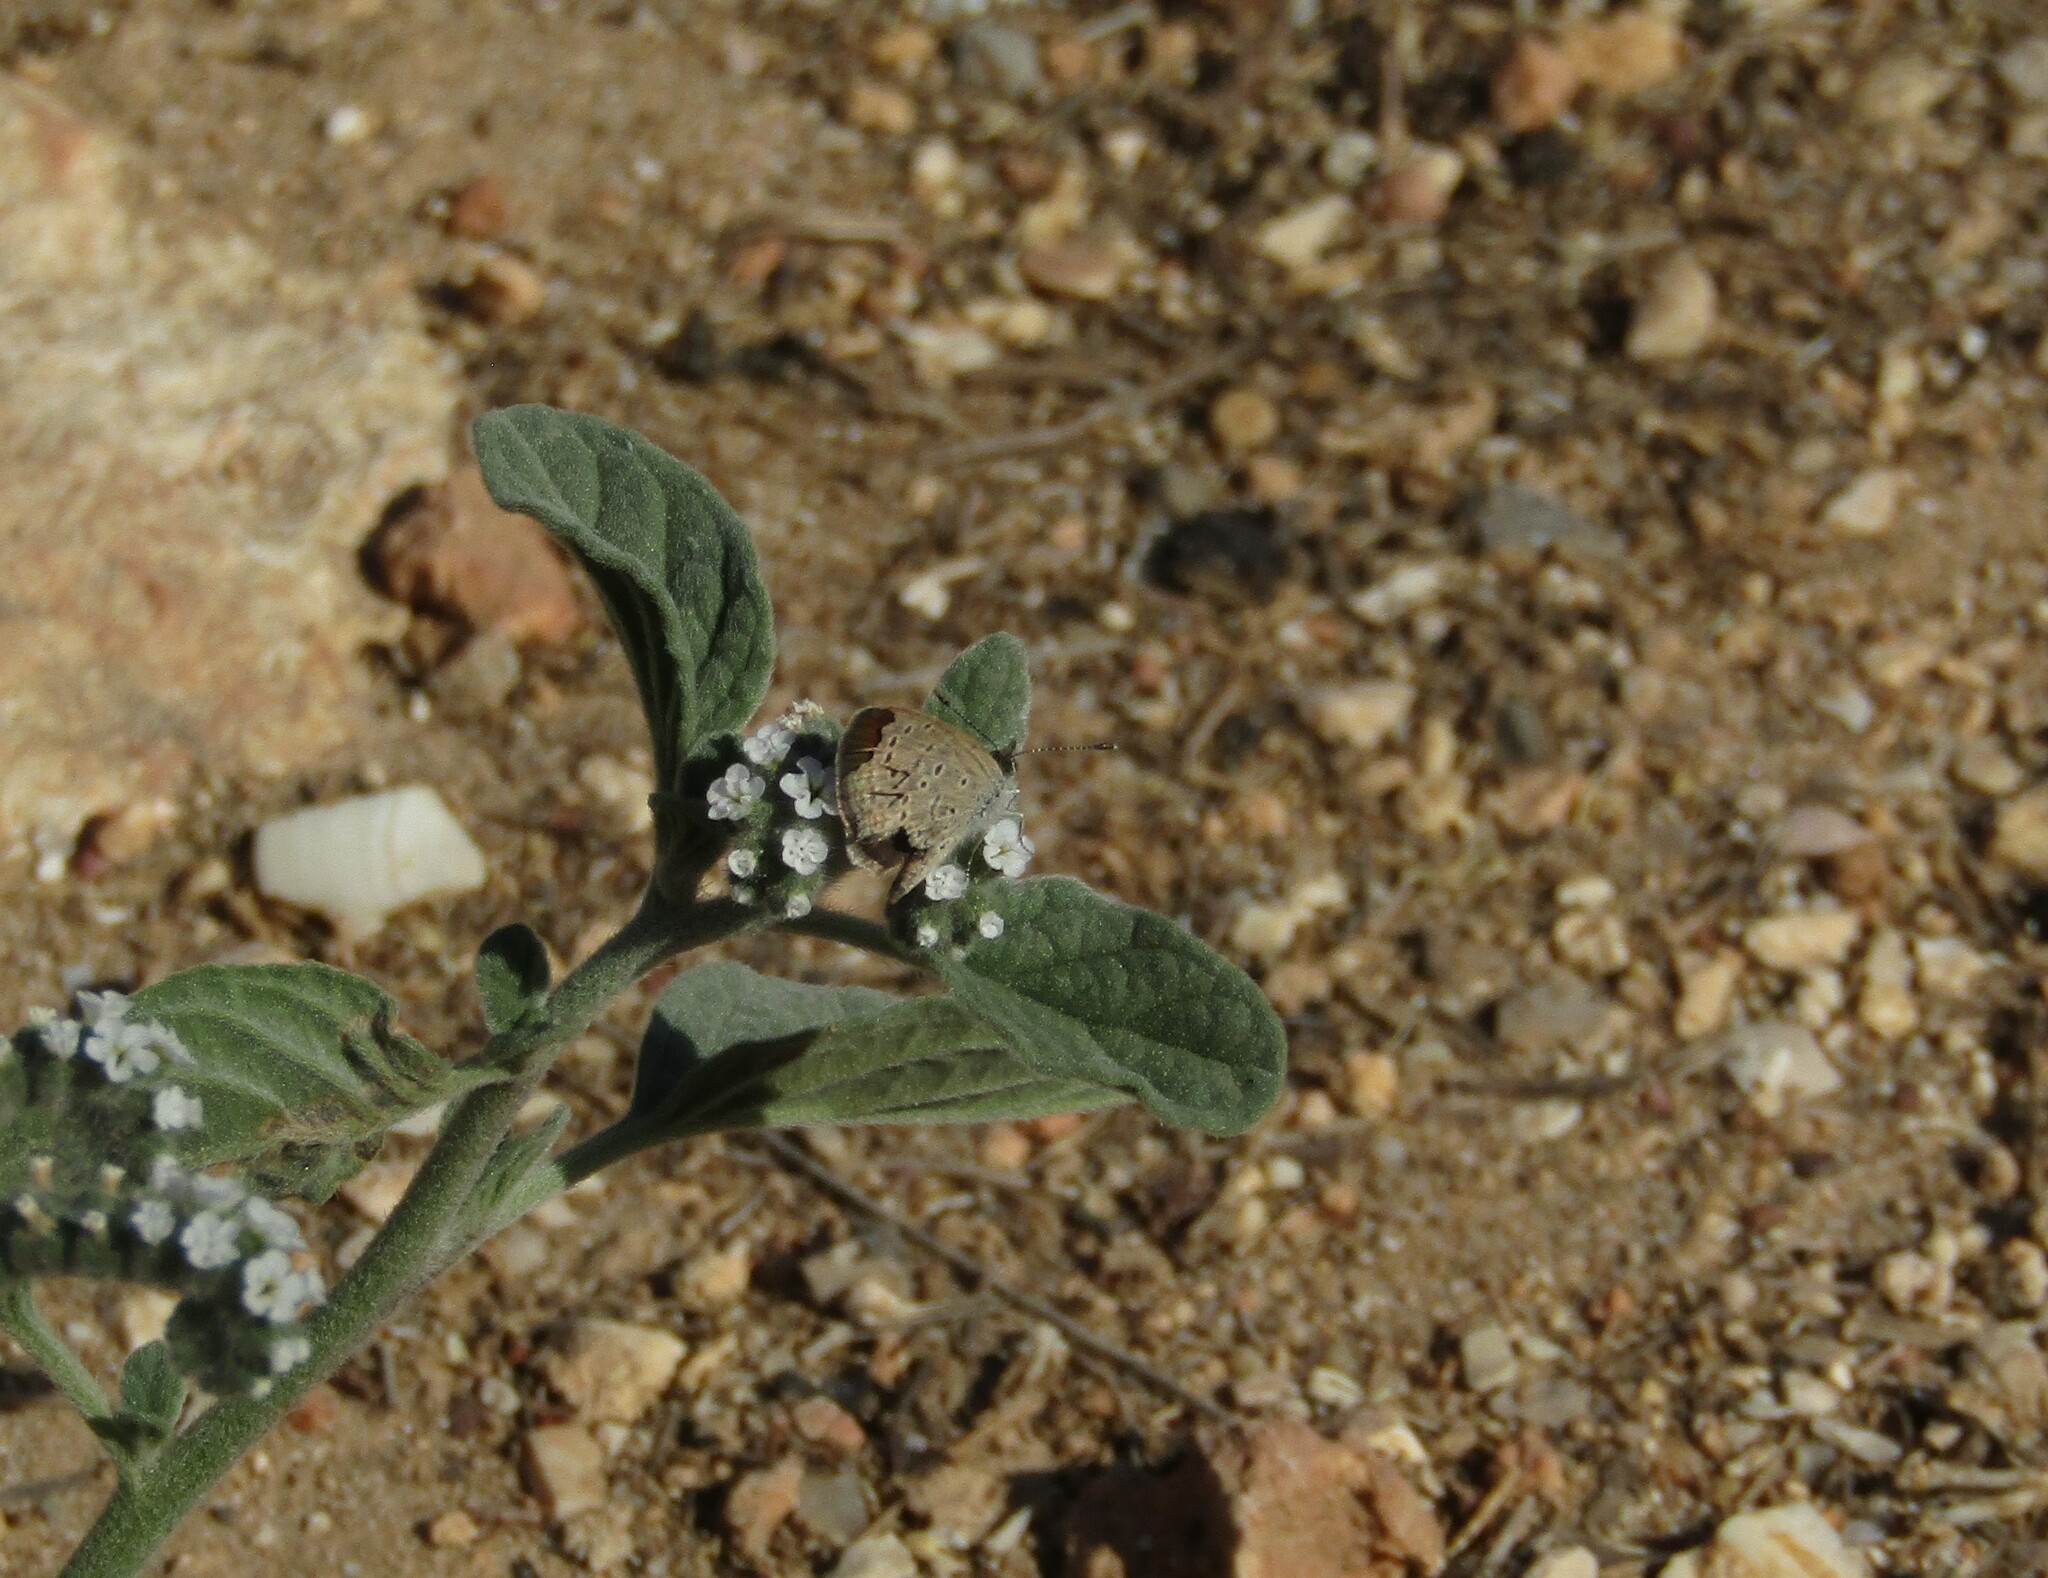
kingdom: Animalia
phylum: Arthropoda
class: Insecta
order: Lepidoptera
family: Lycaenidae
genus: Zizeeria
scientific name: Zizeeria knysna
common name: African grass blue
